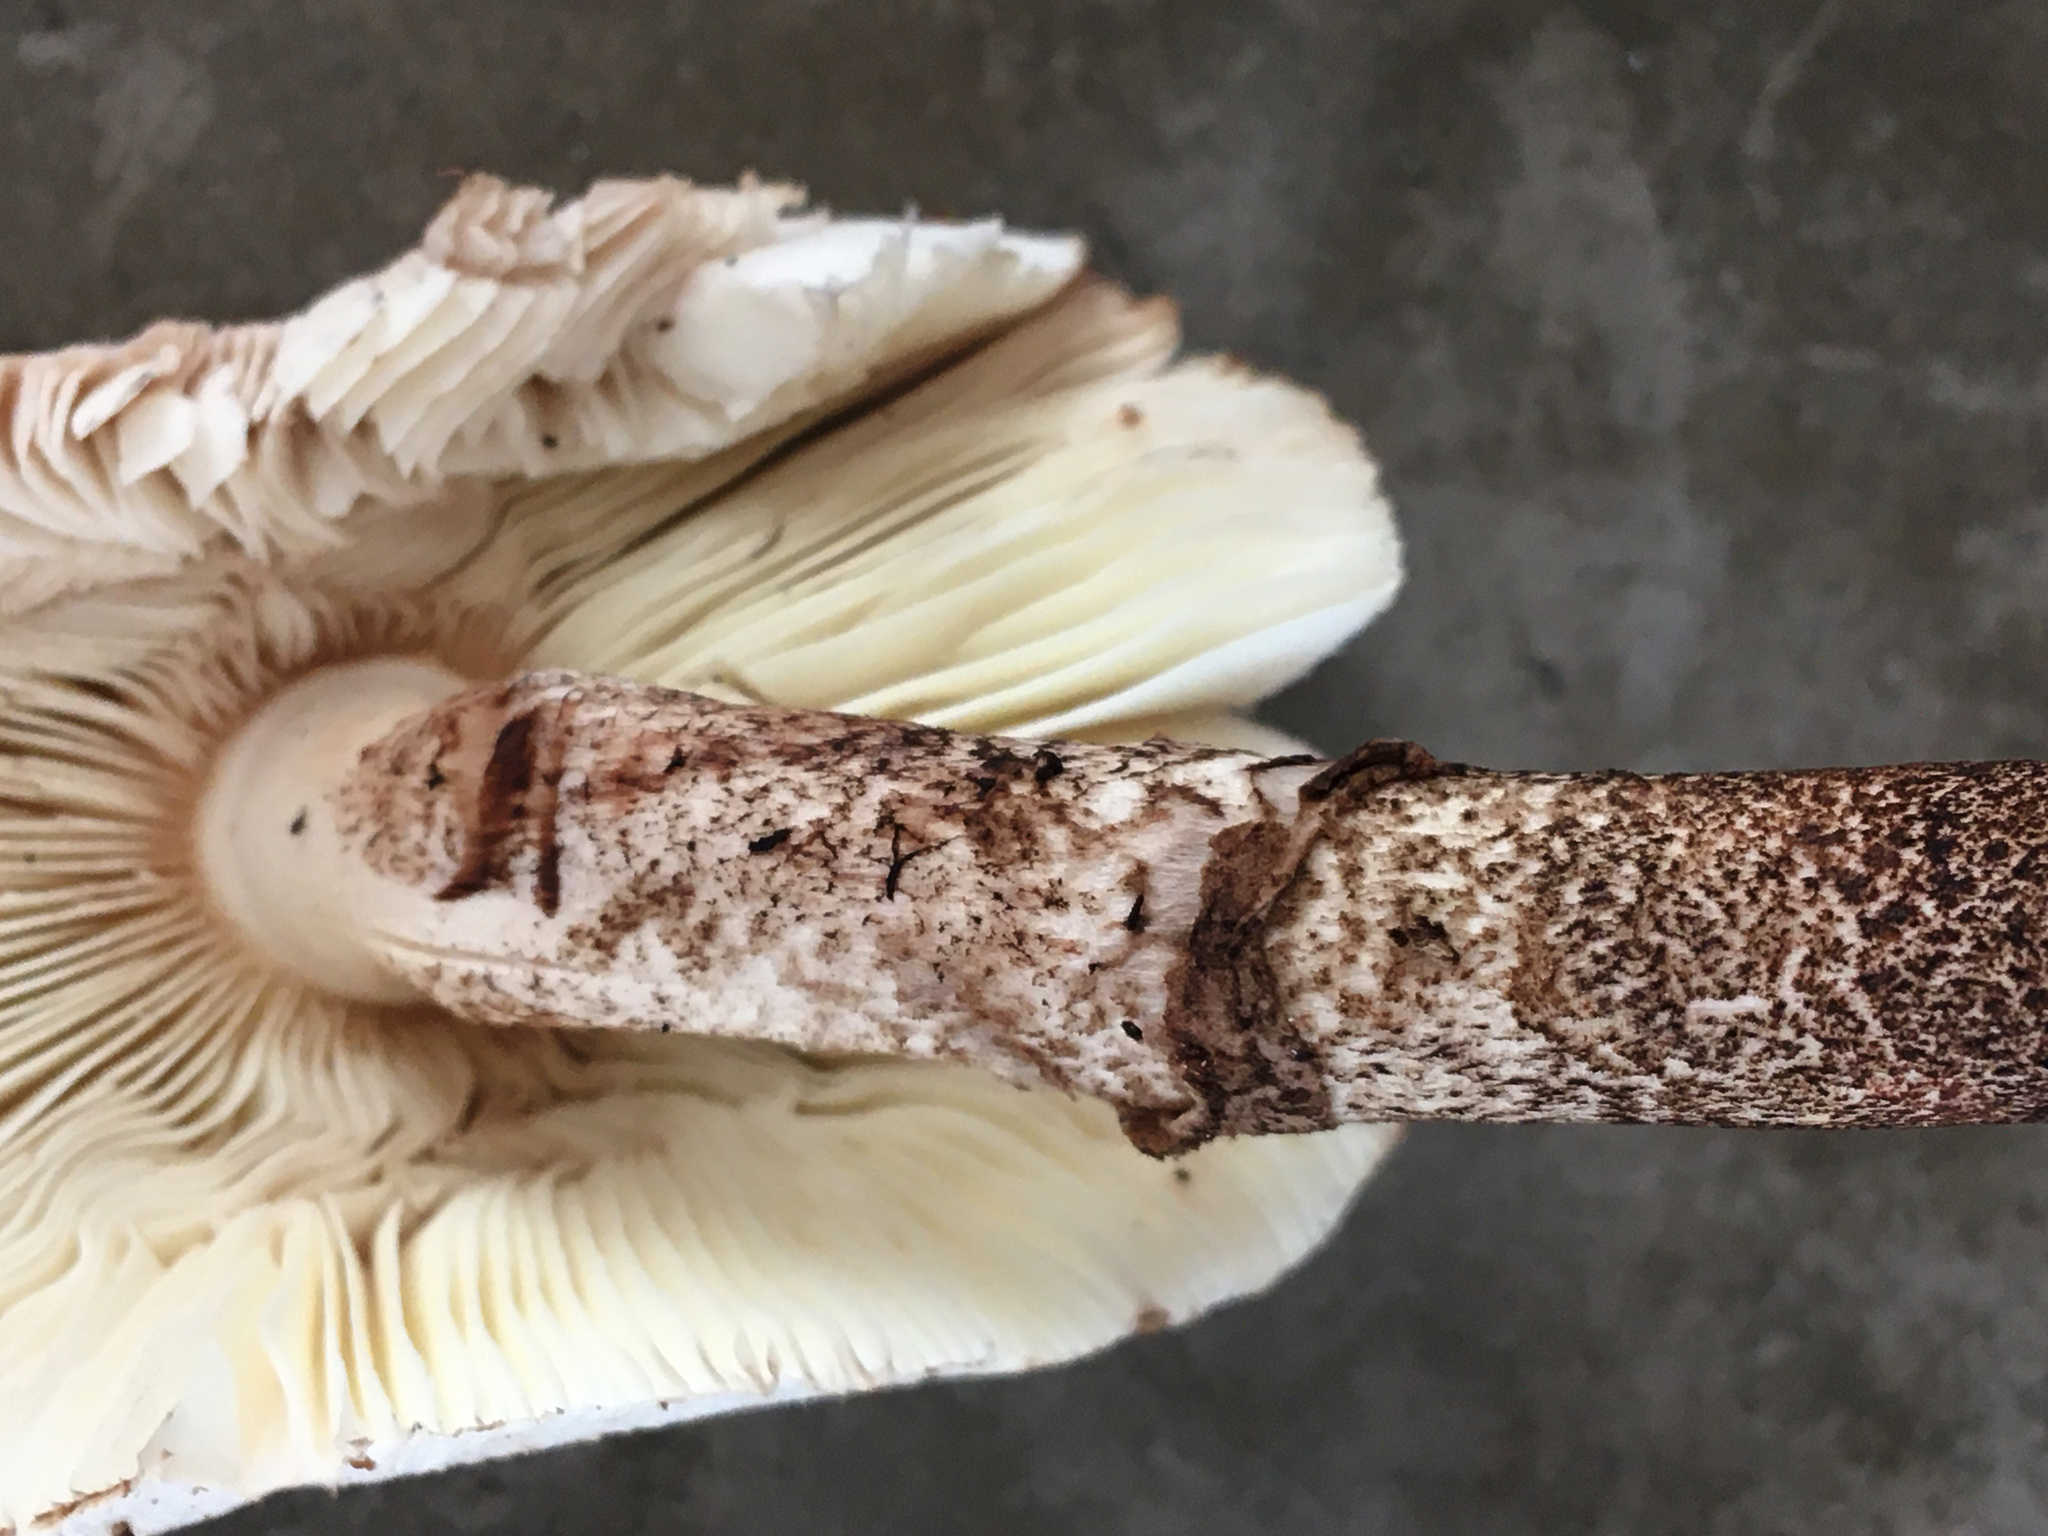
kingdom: Fungi
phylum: Basidiomycota
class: Agaricomycetes
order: Agaricales
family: Agaricaceae
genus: Leucoagaricus
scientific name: Leucoagaricus meleagris
